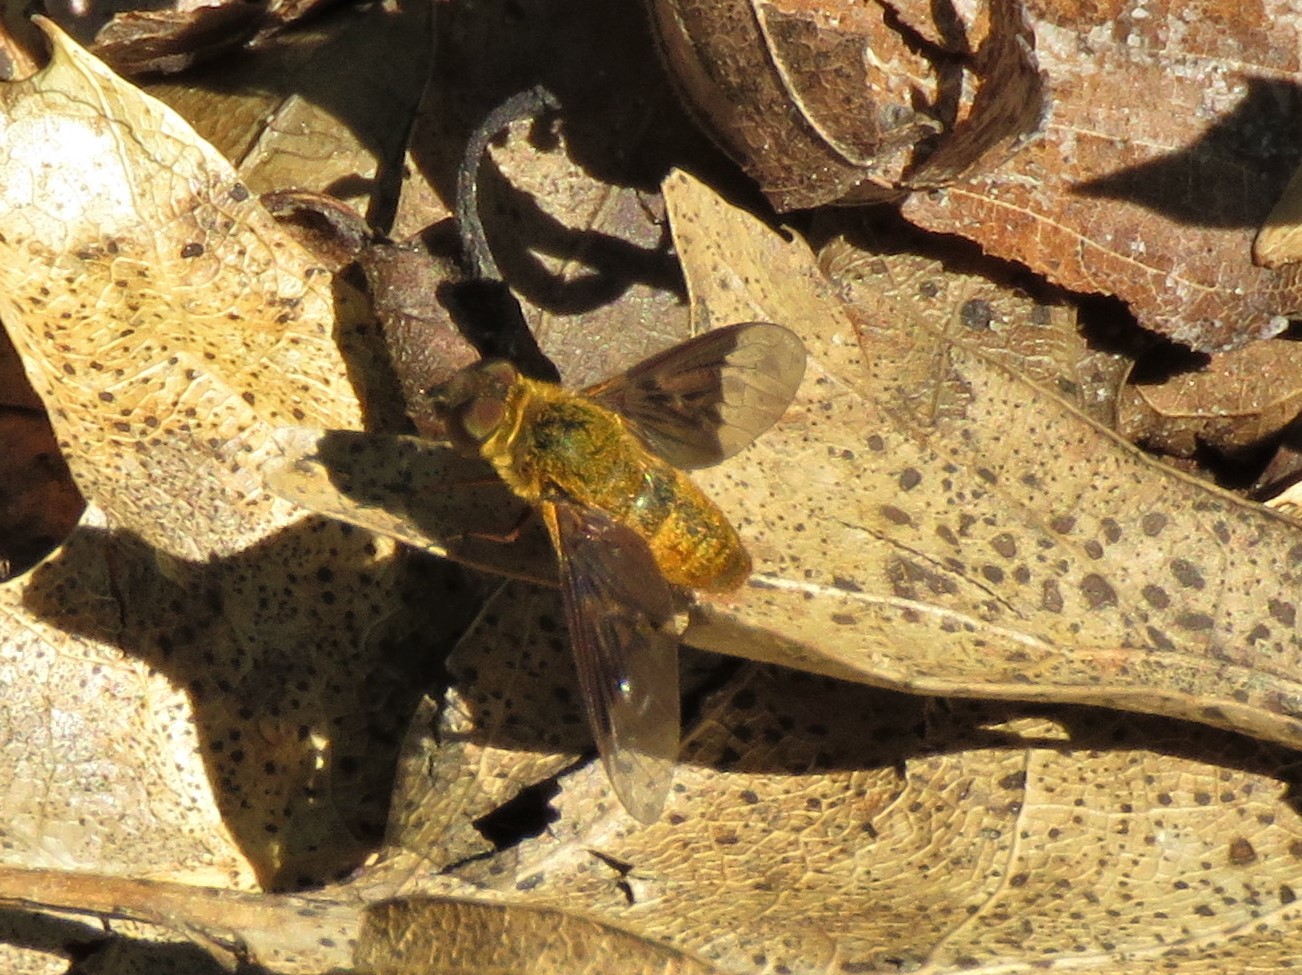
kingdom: Animalia
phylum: Arthropoda
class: Insecta
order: Diptera
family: Bombyliidae
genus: Chrysanthrax
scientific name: Chrysanthrax cypris
